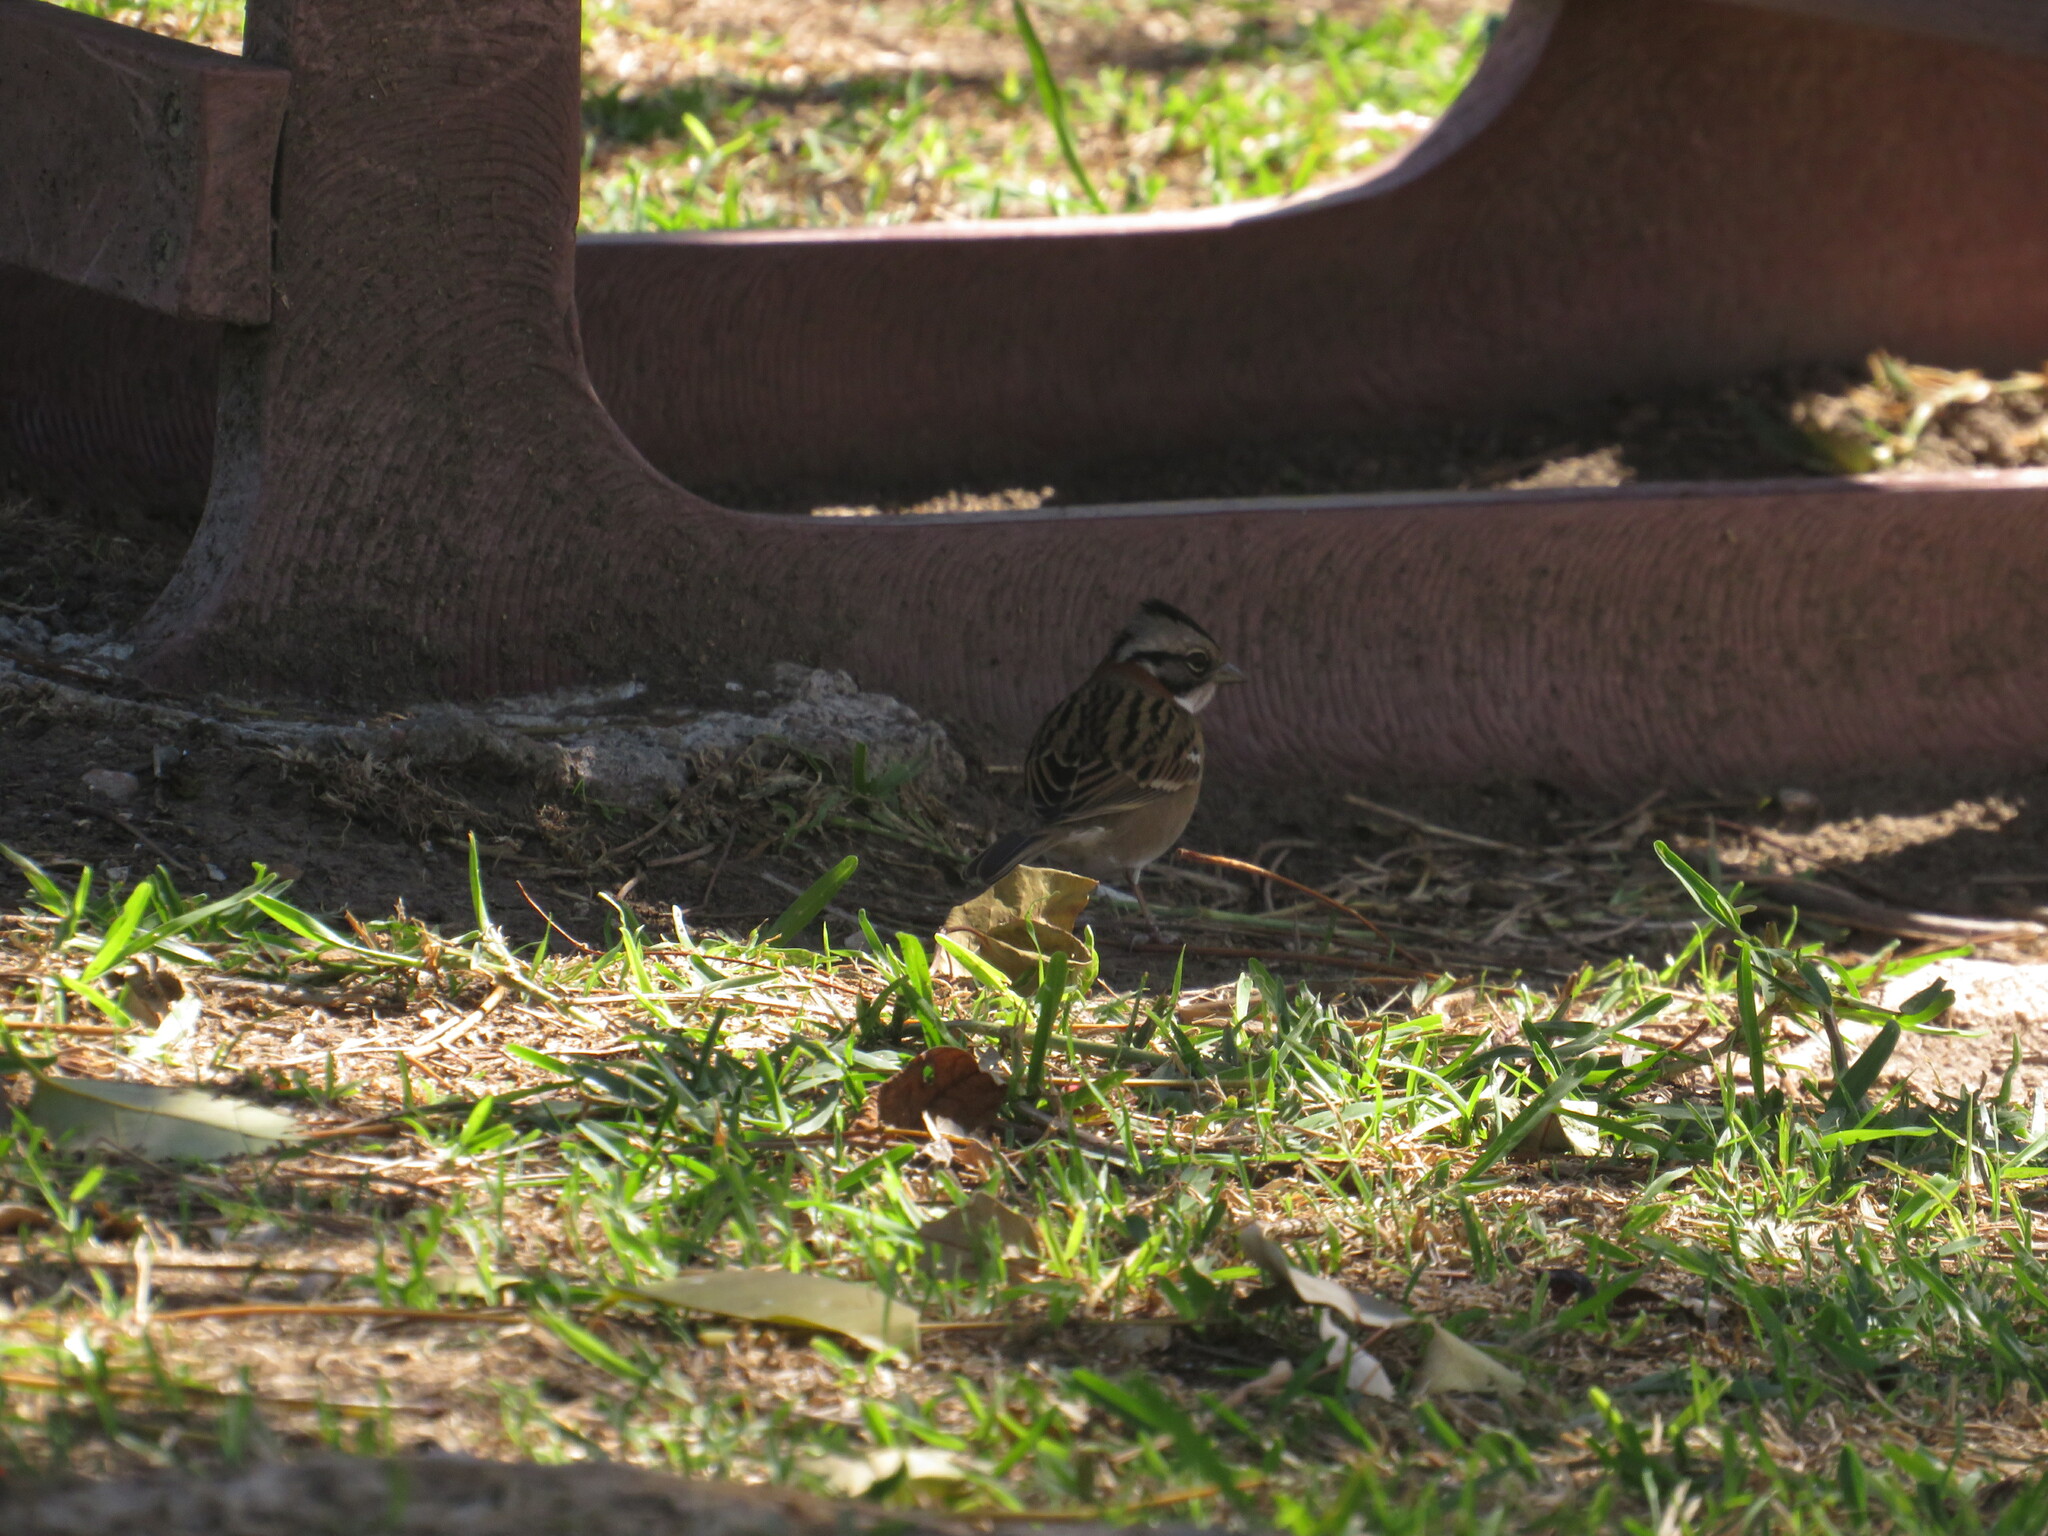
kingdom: Animalia
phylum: Chordata
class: Aves
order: Passeriformes
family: Passerellidae
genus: Zonotrichia
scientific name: Zonotrichia capensis
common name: Rufous-collared sparrow
